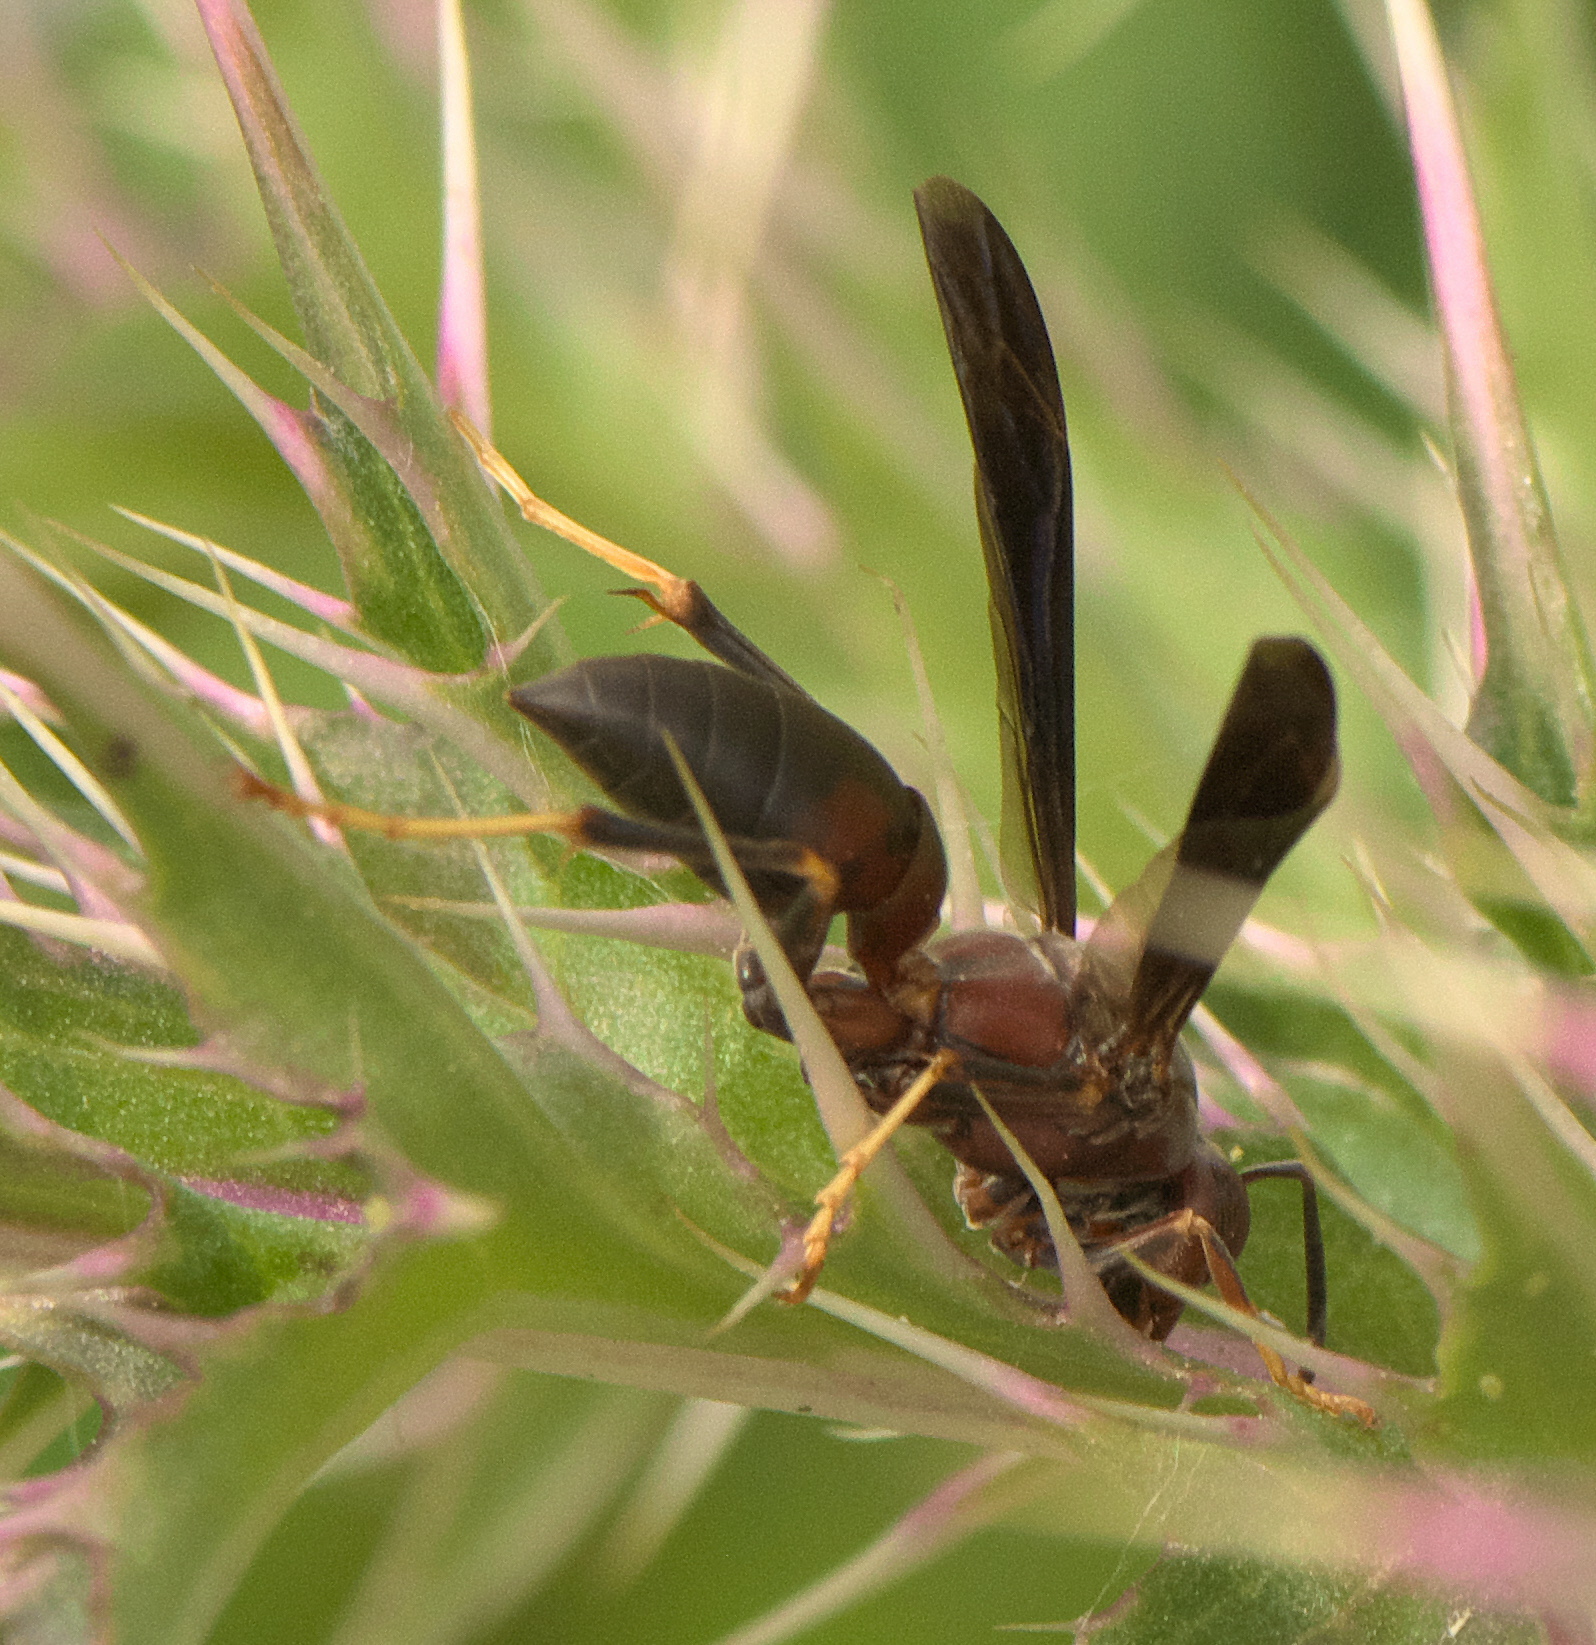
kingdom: Animalia
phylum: Arthropoda
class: Insecta
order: Hymenoptera
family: Eumenidae
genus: Polistes
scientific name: Polistes metricus
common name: Metric paper wasp
